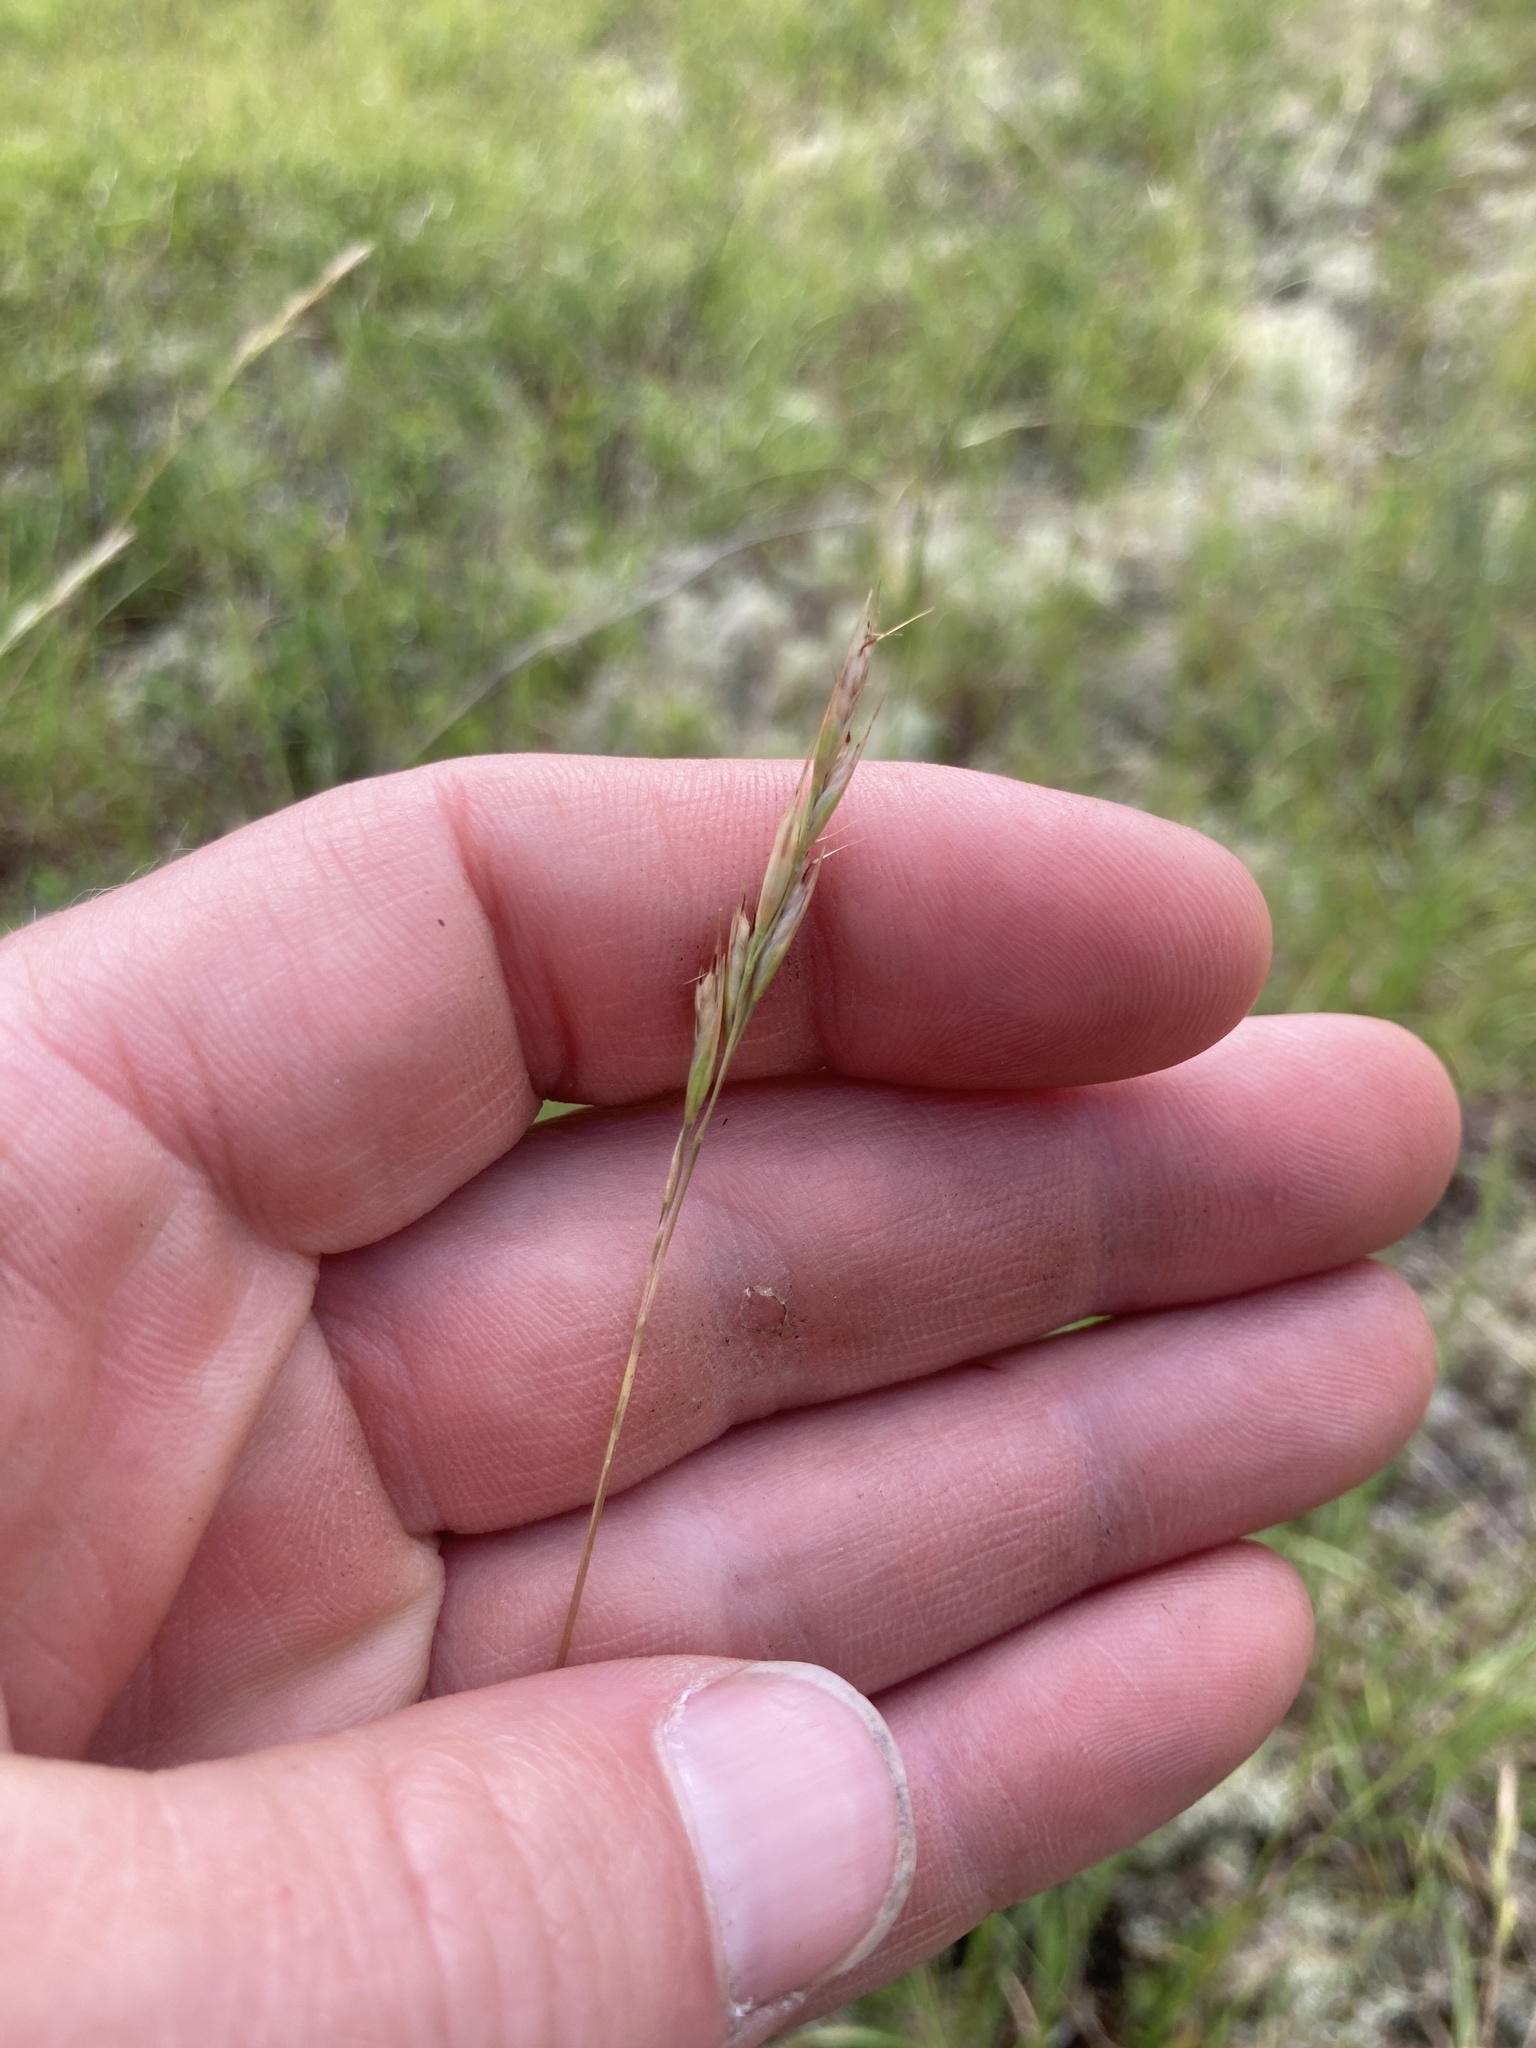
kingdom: Plantae
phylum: Tracheophyta
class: Liliopsida
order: Poales
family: Poaceae
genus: Danthonia
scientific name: Danthonia spicata
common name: Common wild oatgrass
